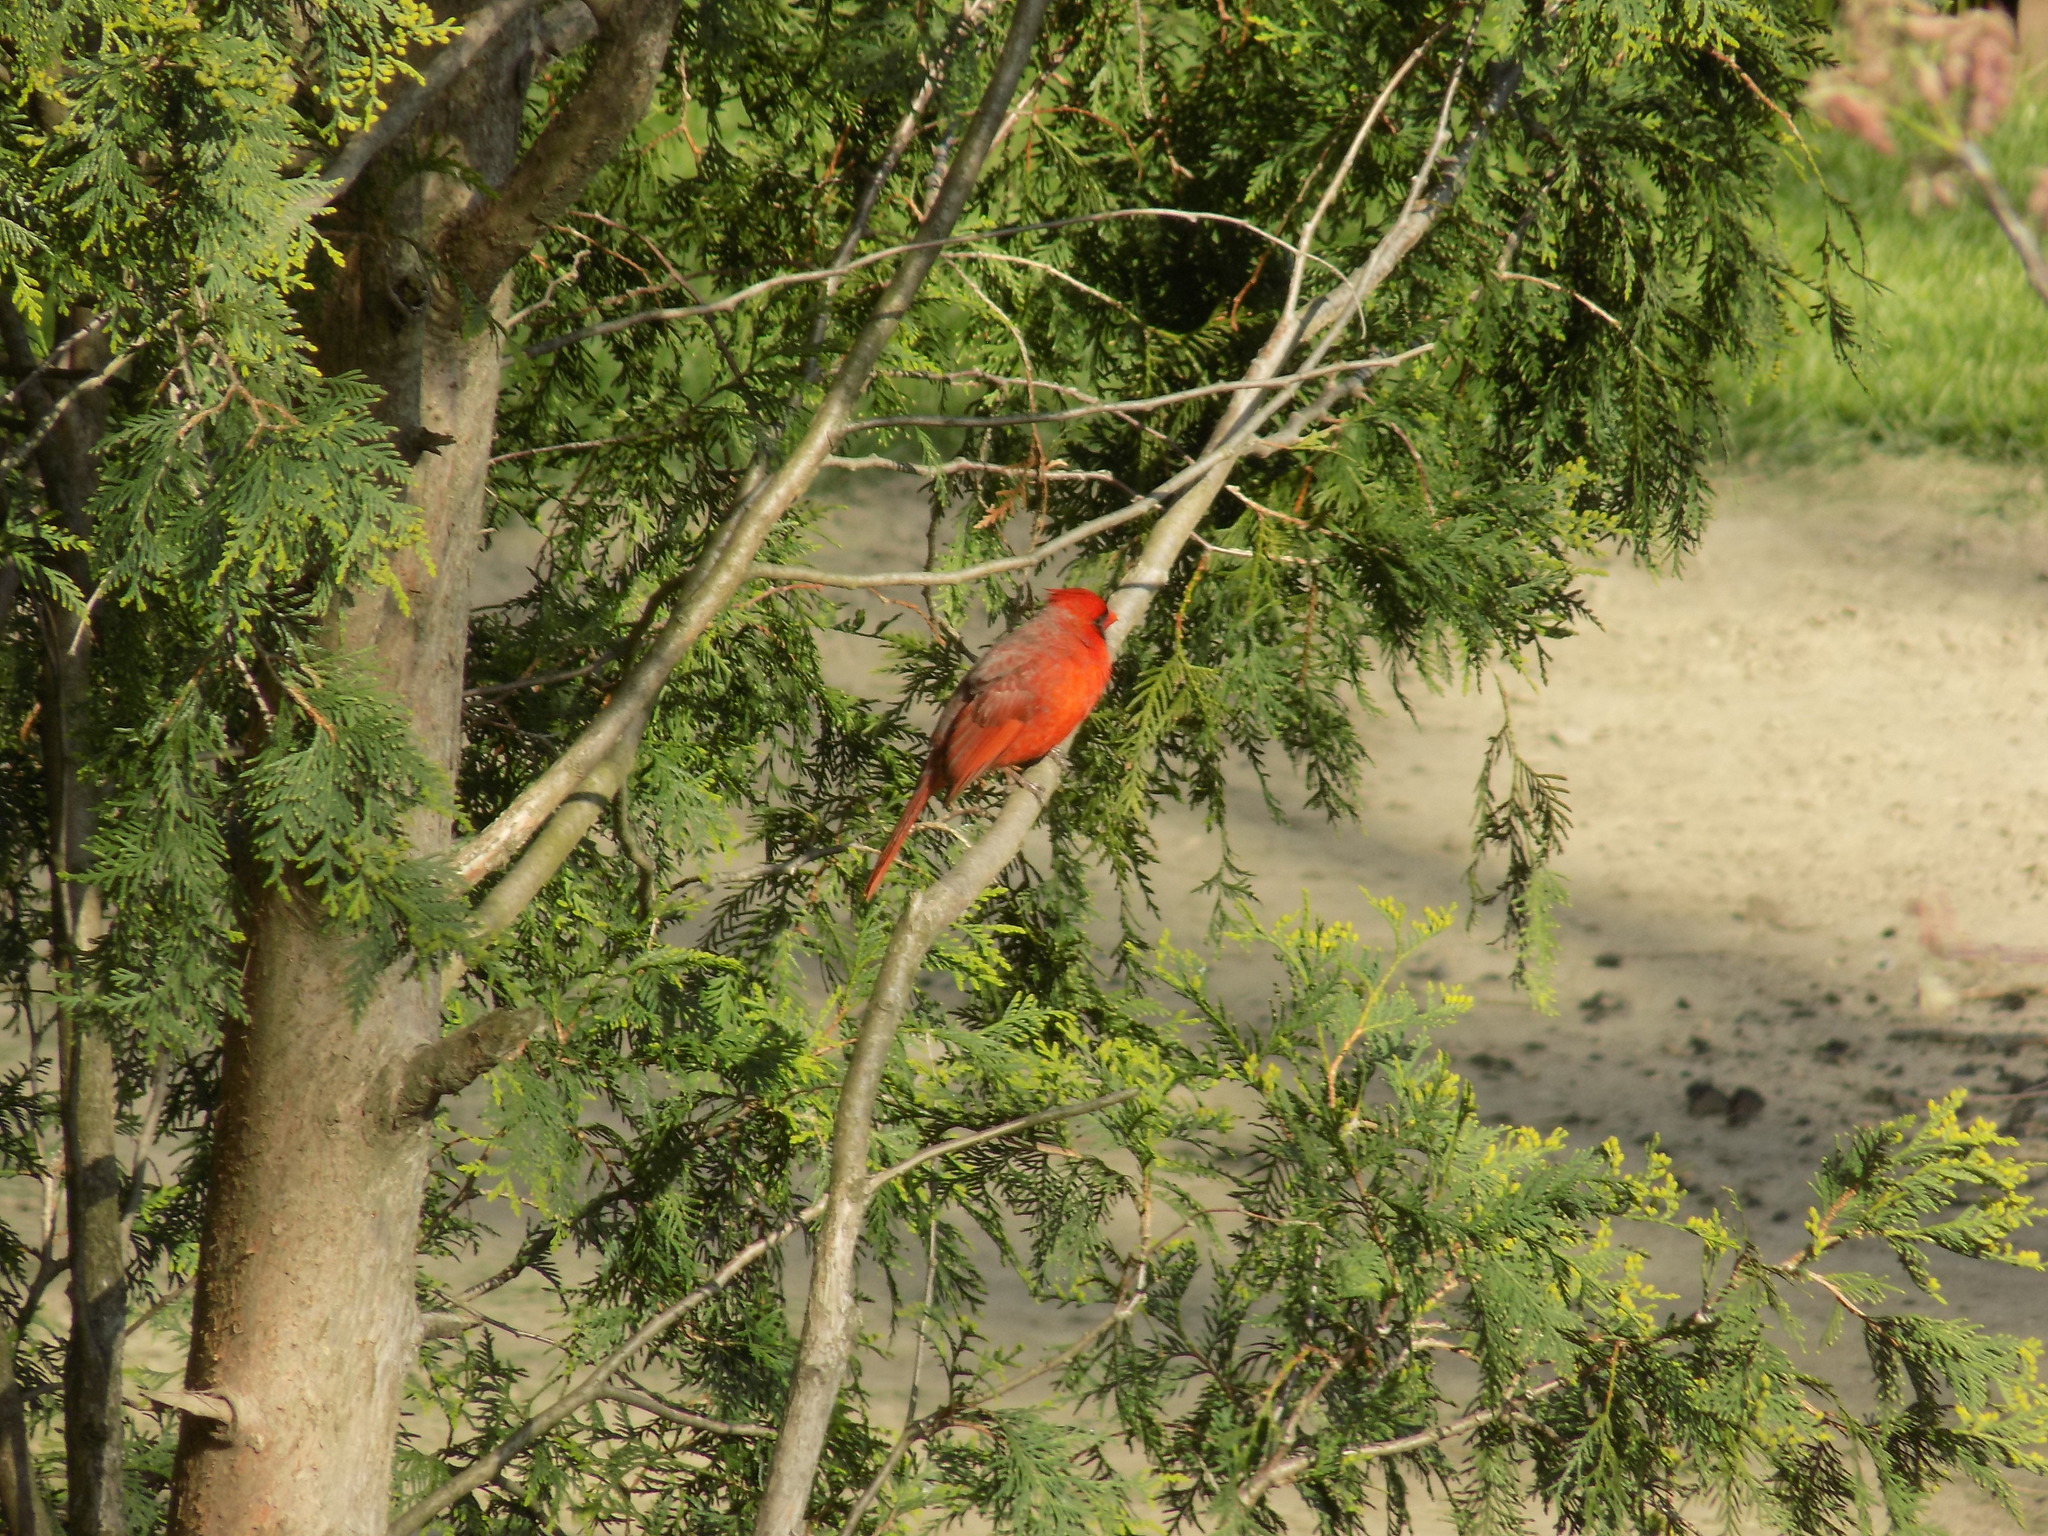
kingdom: Animalia
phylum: Chordata
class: Aves
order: Passeriformes
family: Cardinalidae
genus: Cardinalis
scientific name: Cardinalis cardinalis
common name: Northern cardinal
